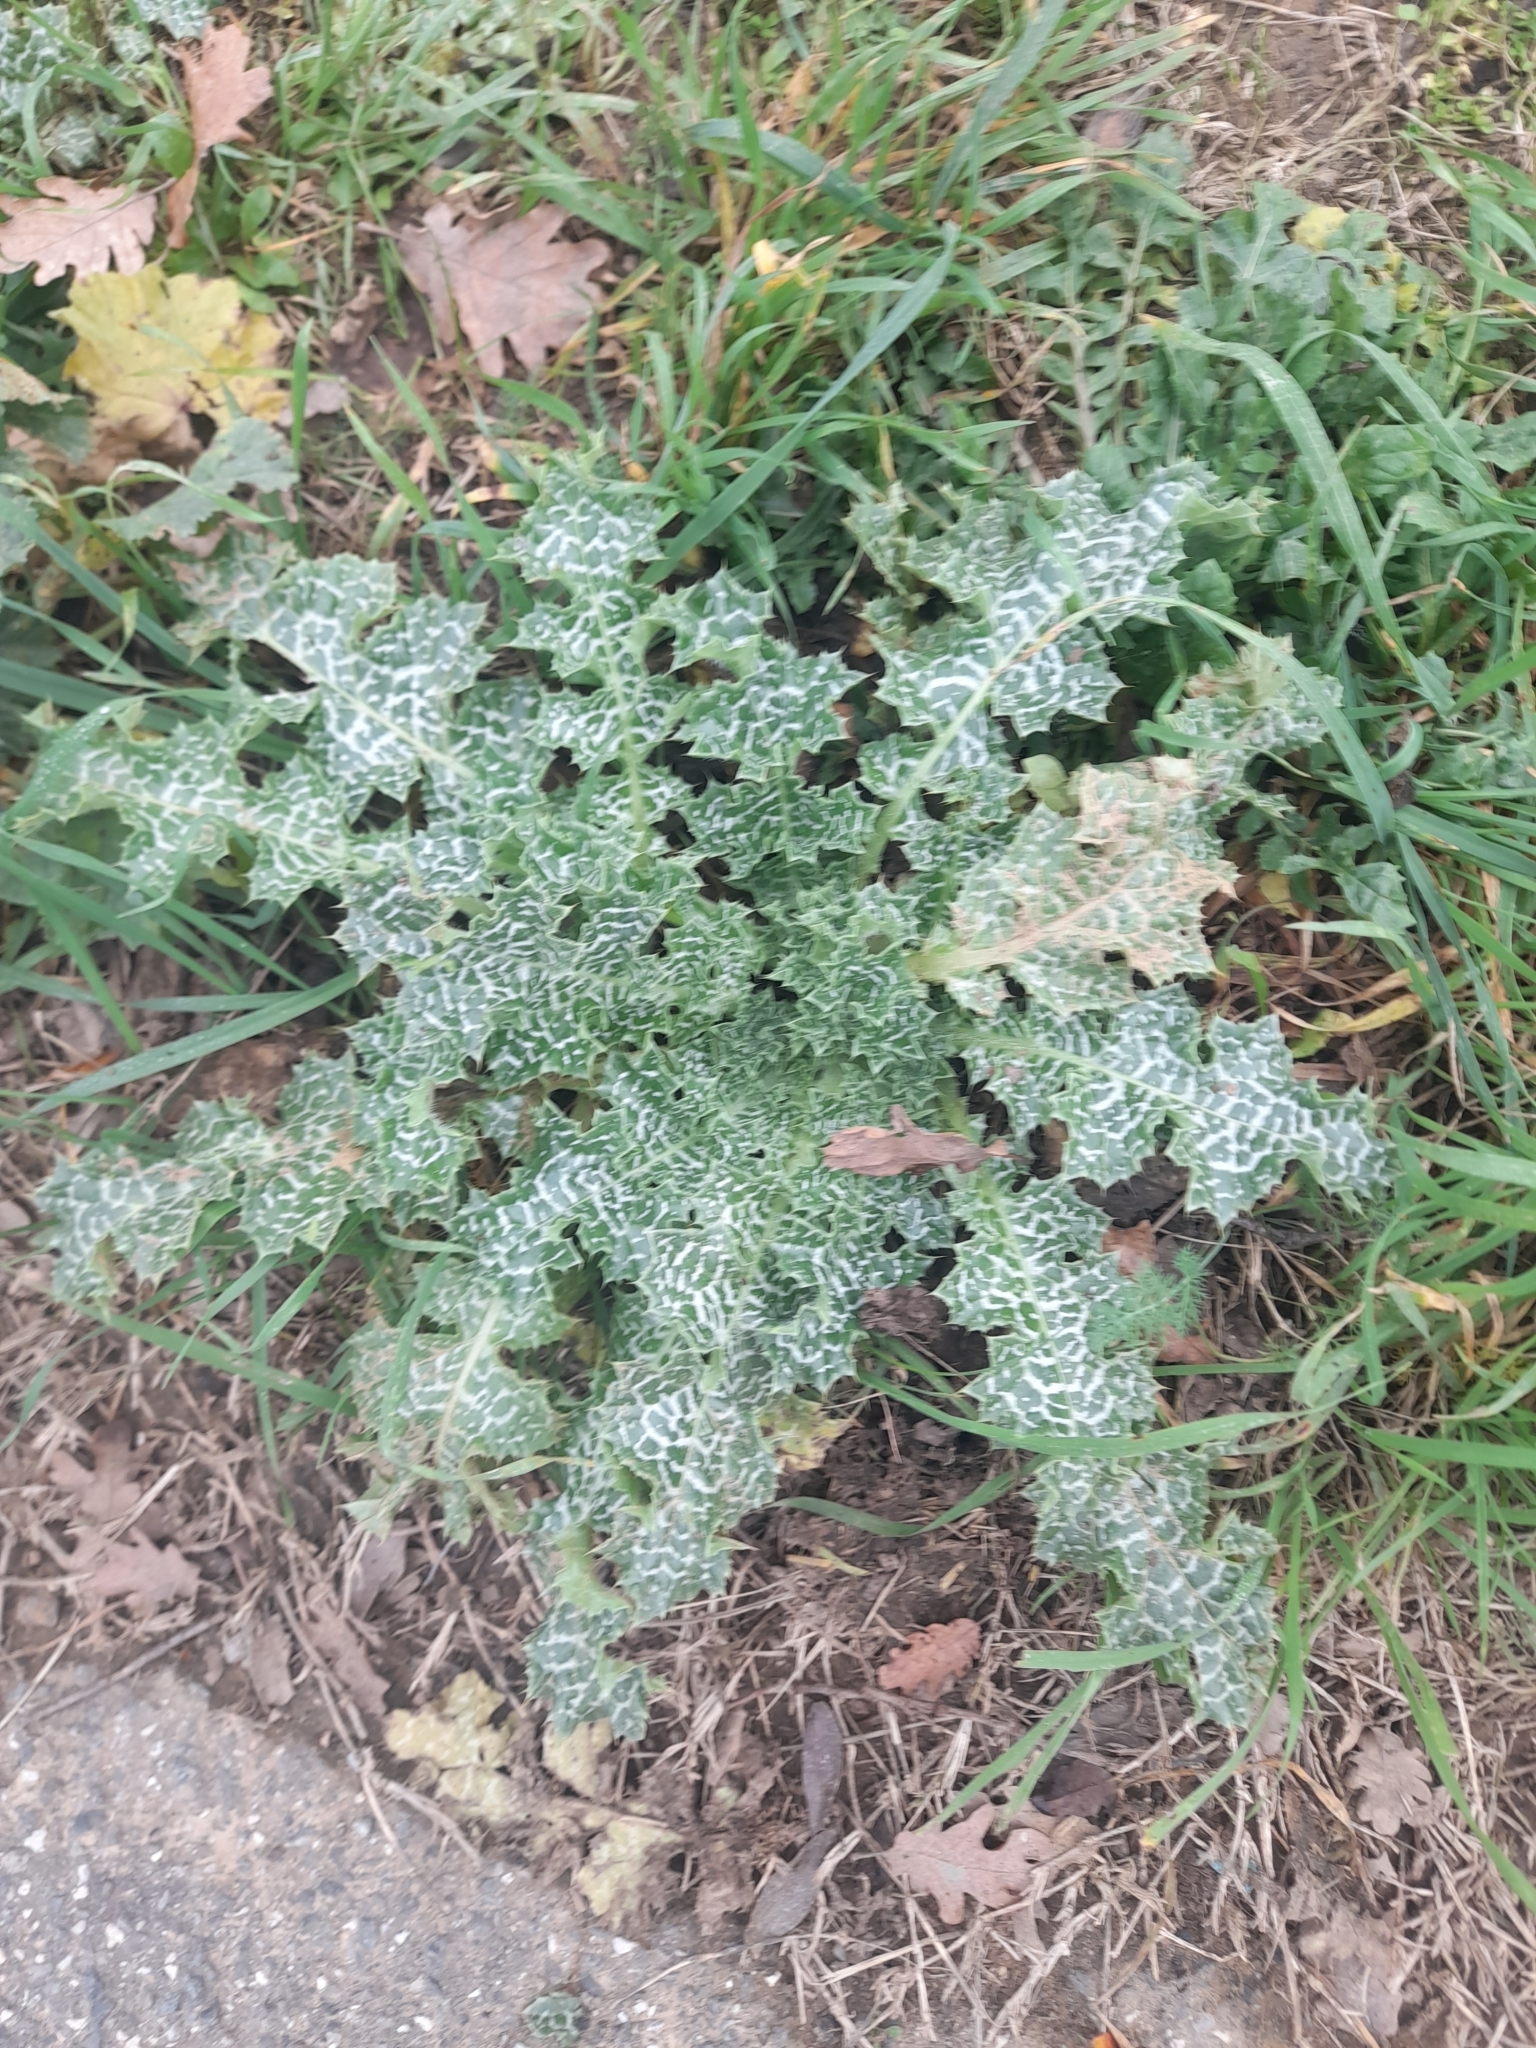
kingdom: Plantae
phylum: Tracheophyta
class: Magnoliopsida
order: Asterales
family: Asteraceae
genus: Silybum
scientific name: Silybum marianum
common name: Milk thistle
